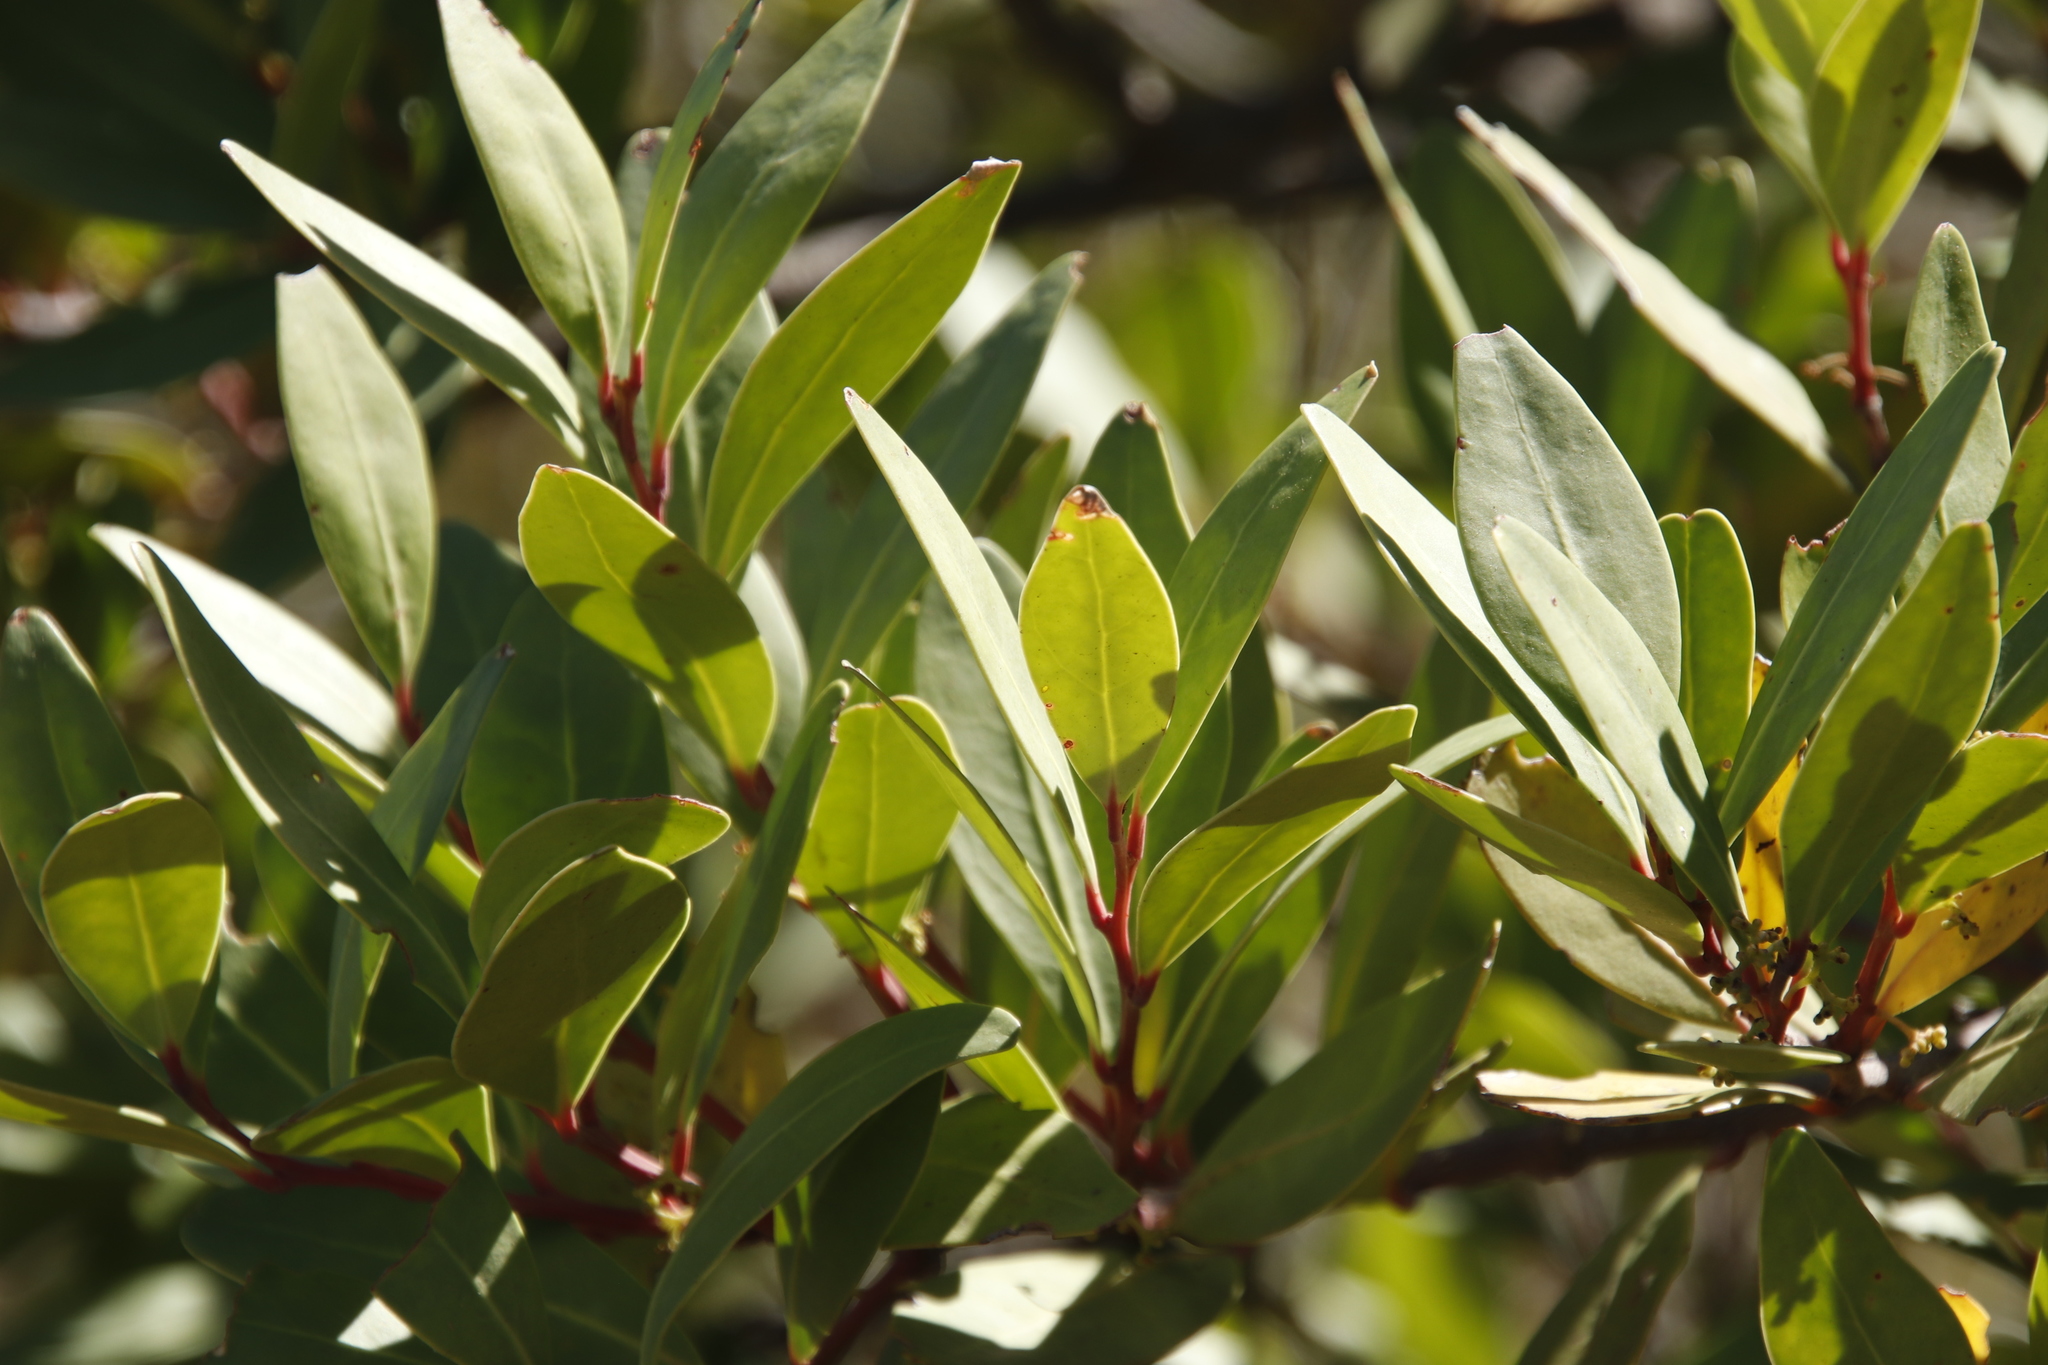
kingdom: Plantae
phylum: Tracheophyta
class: Magnoliopsida
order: Celastrales
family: Celastraceae
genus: Gymnosporia
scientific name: Gymnosporia laurina
